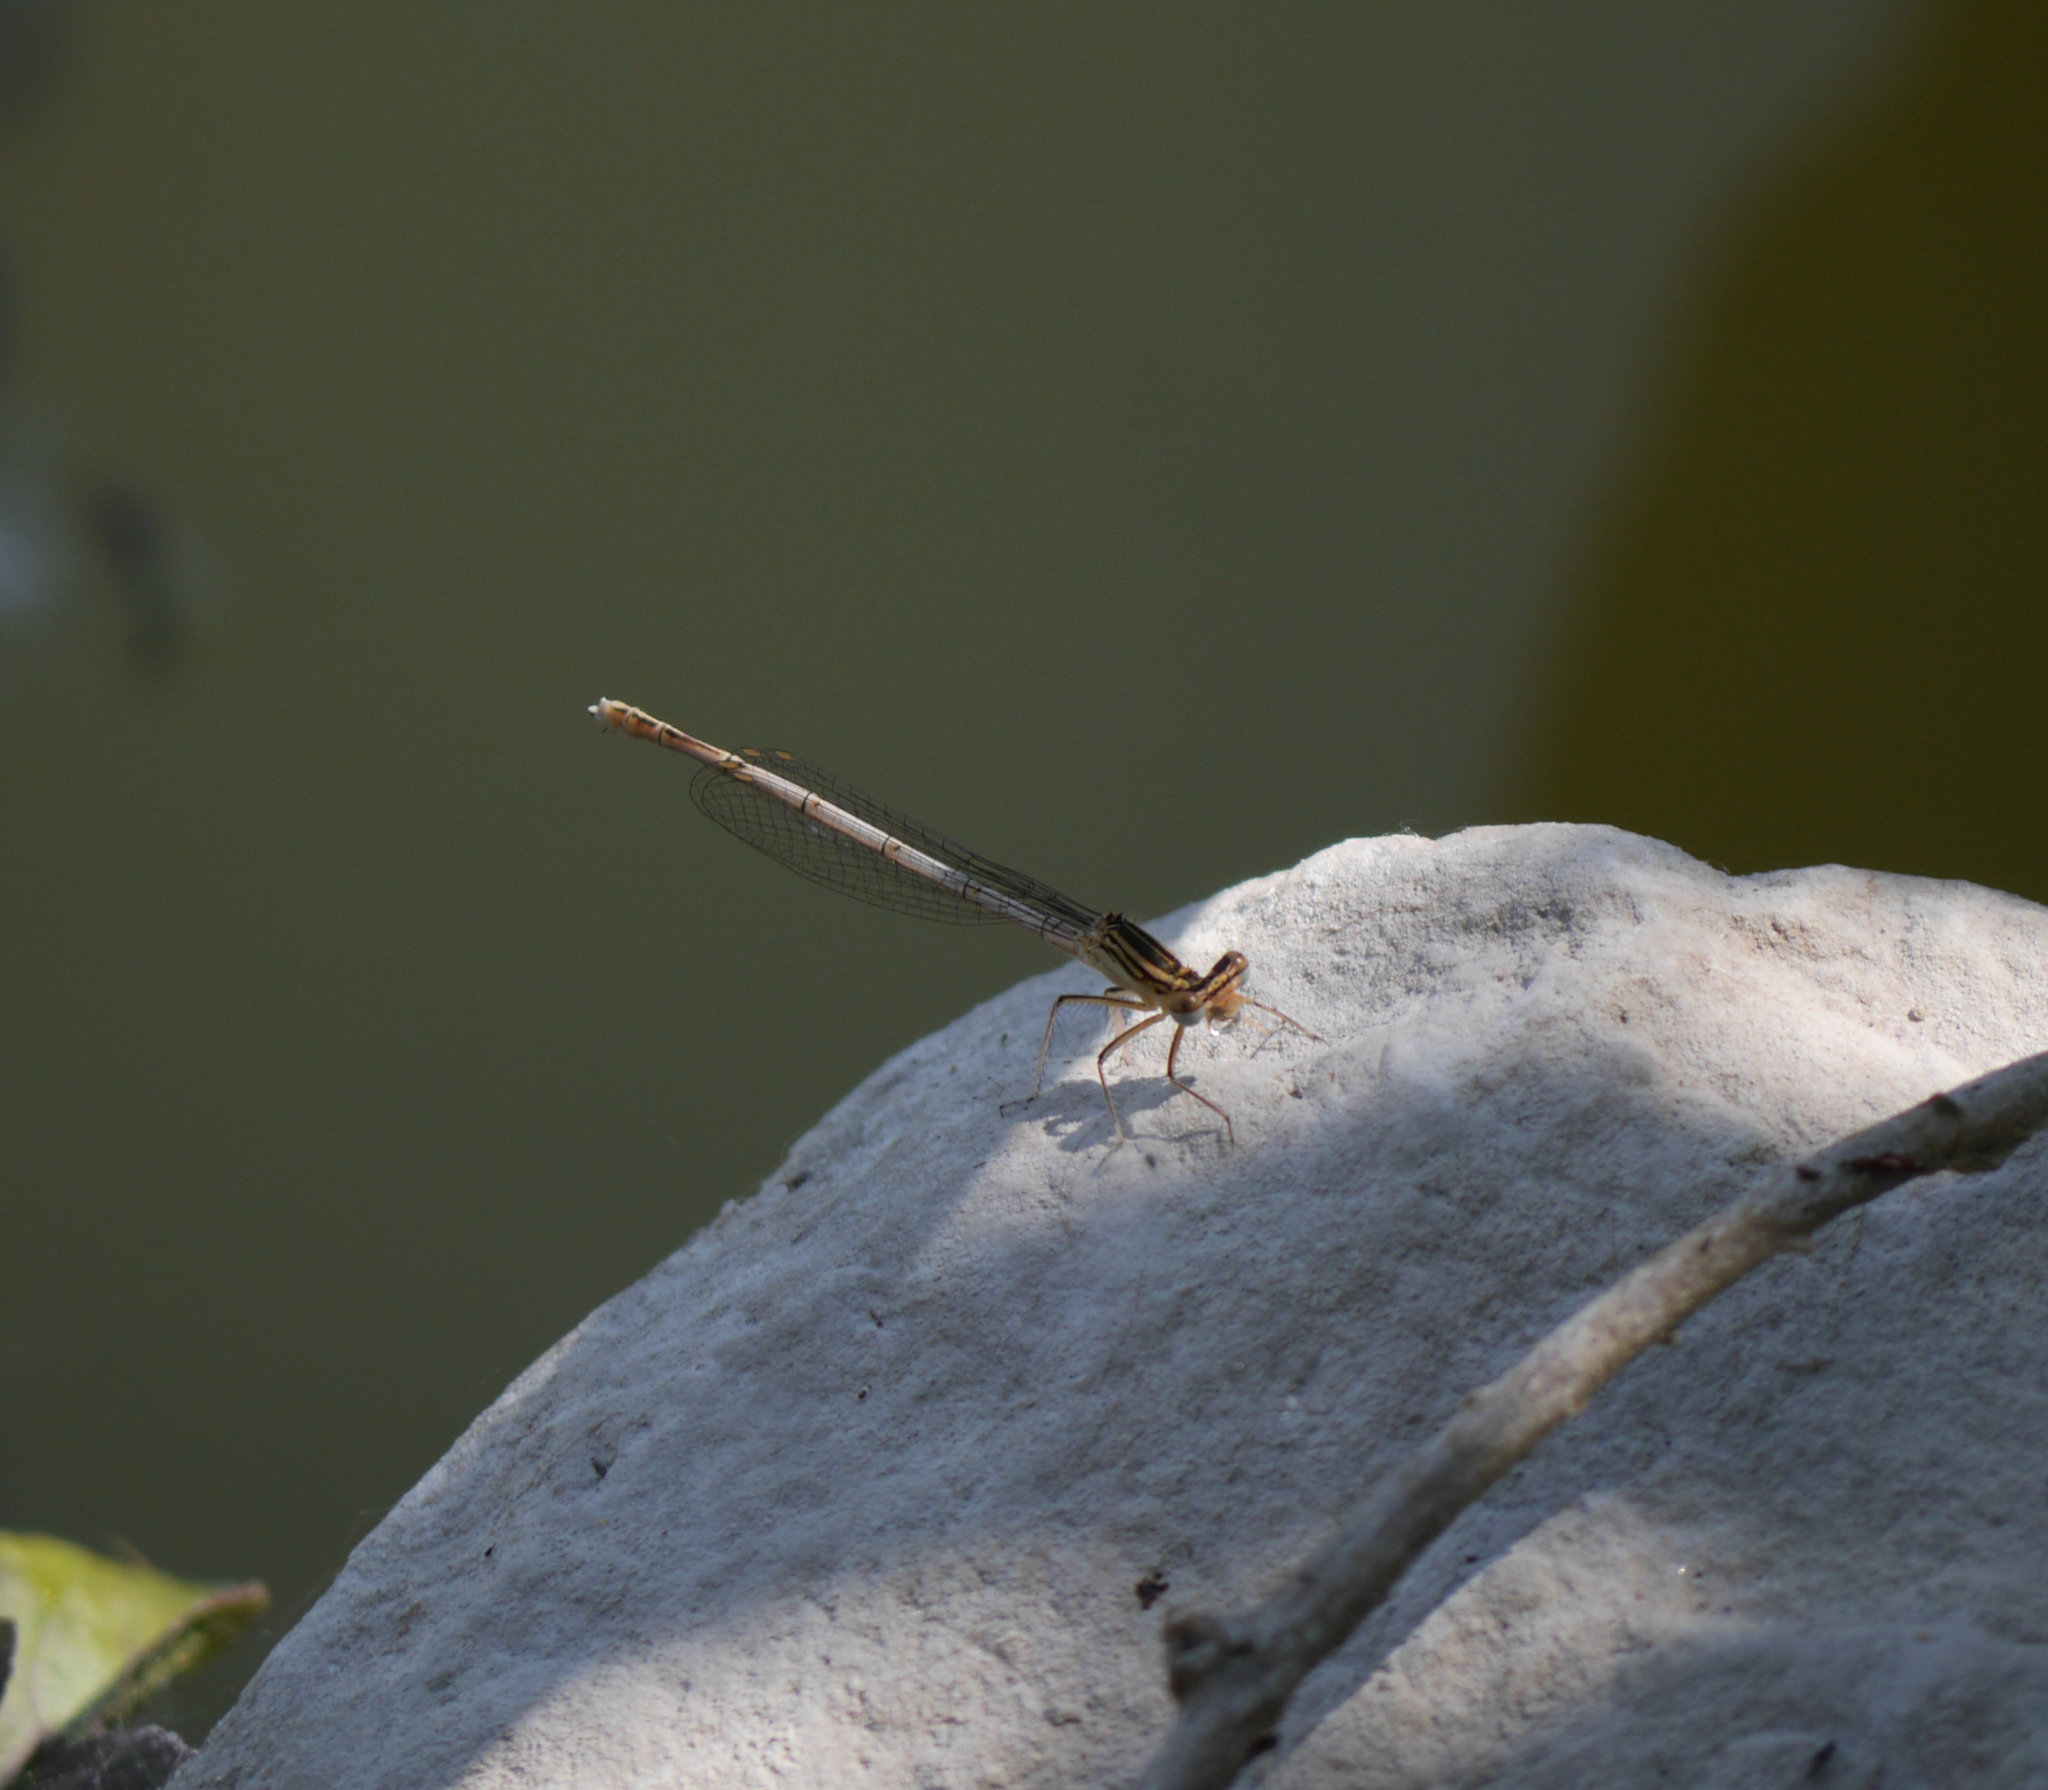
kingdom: Animalia
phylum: Arthropoda
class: Insecta
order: Odonata
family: Platycnemididae
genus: Platycnemis
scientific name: Platycnemis pennipes
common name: White-legged damselfly
